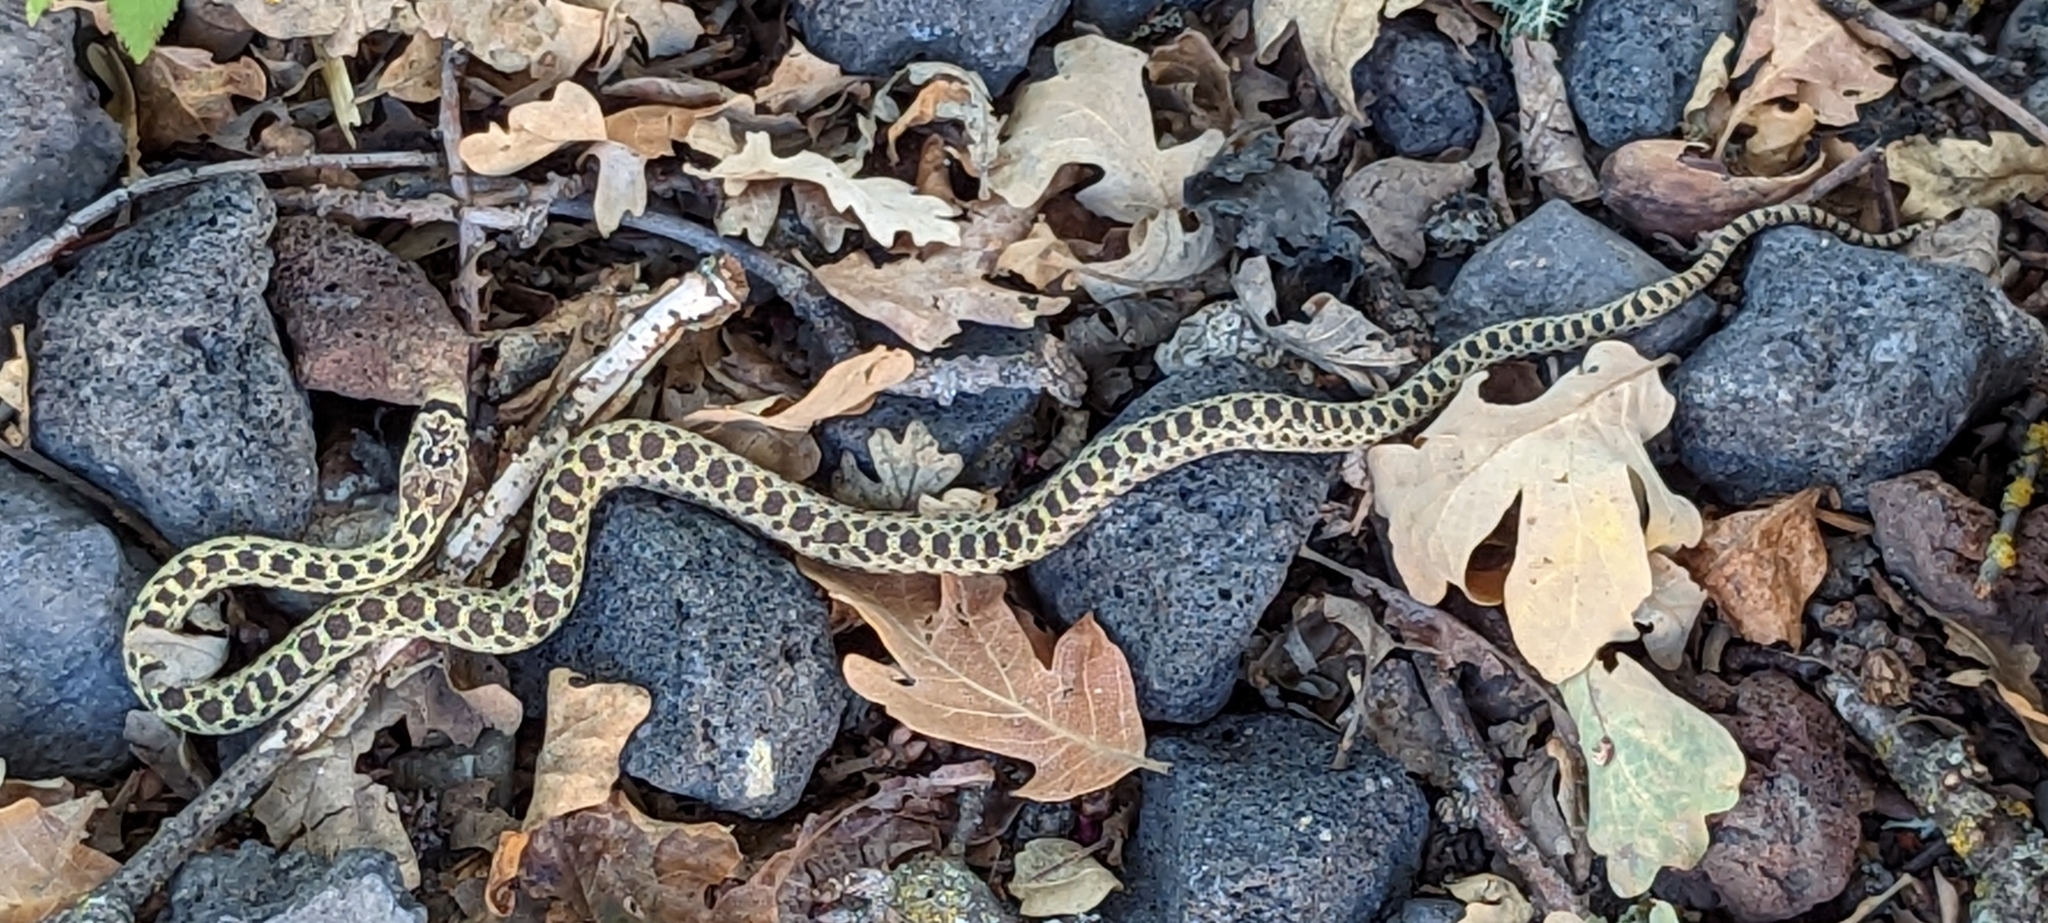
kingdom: Animalia
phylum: Chordata
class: Squamata
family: Colubridae
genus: Pituophis
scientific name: Pituophis catenifer
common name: Gopher snake
